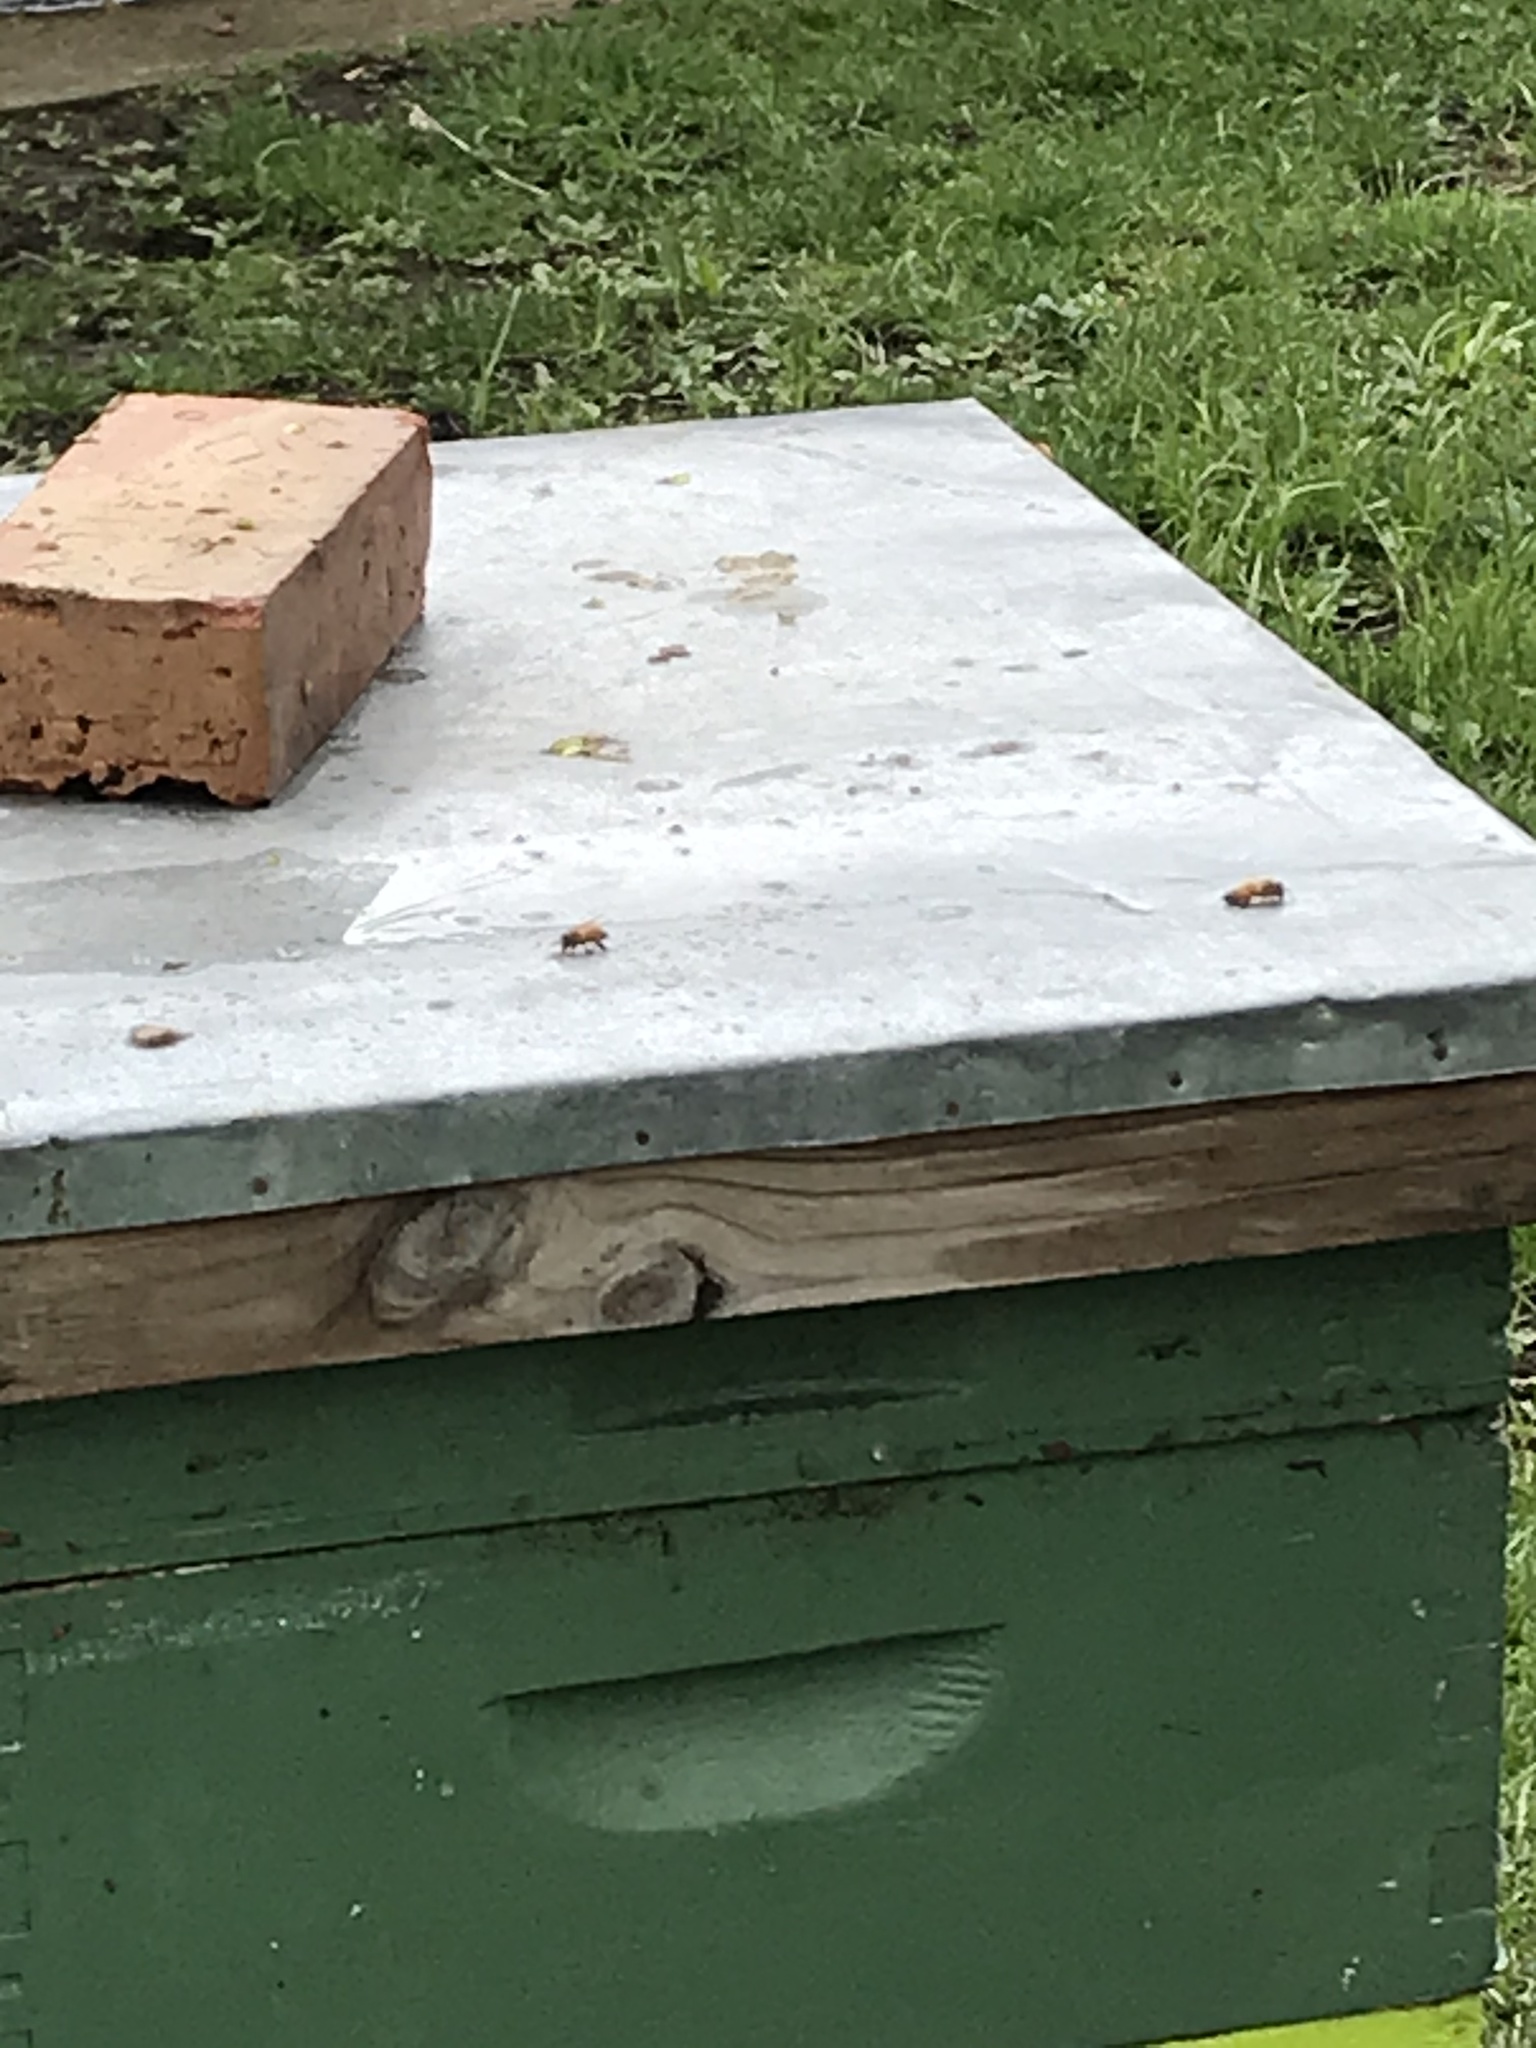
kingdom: Animalia
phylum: Arthropoda
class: Insecta
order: Hymenoptera
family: Apidae
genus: Apis
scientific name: Apis mellifera
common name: Honey bee
